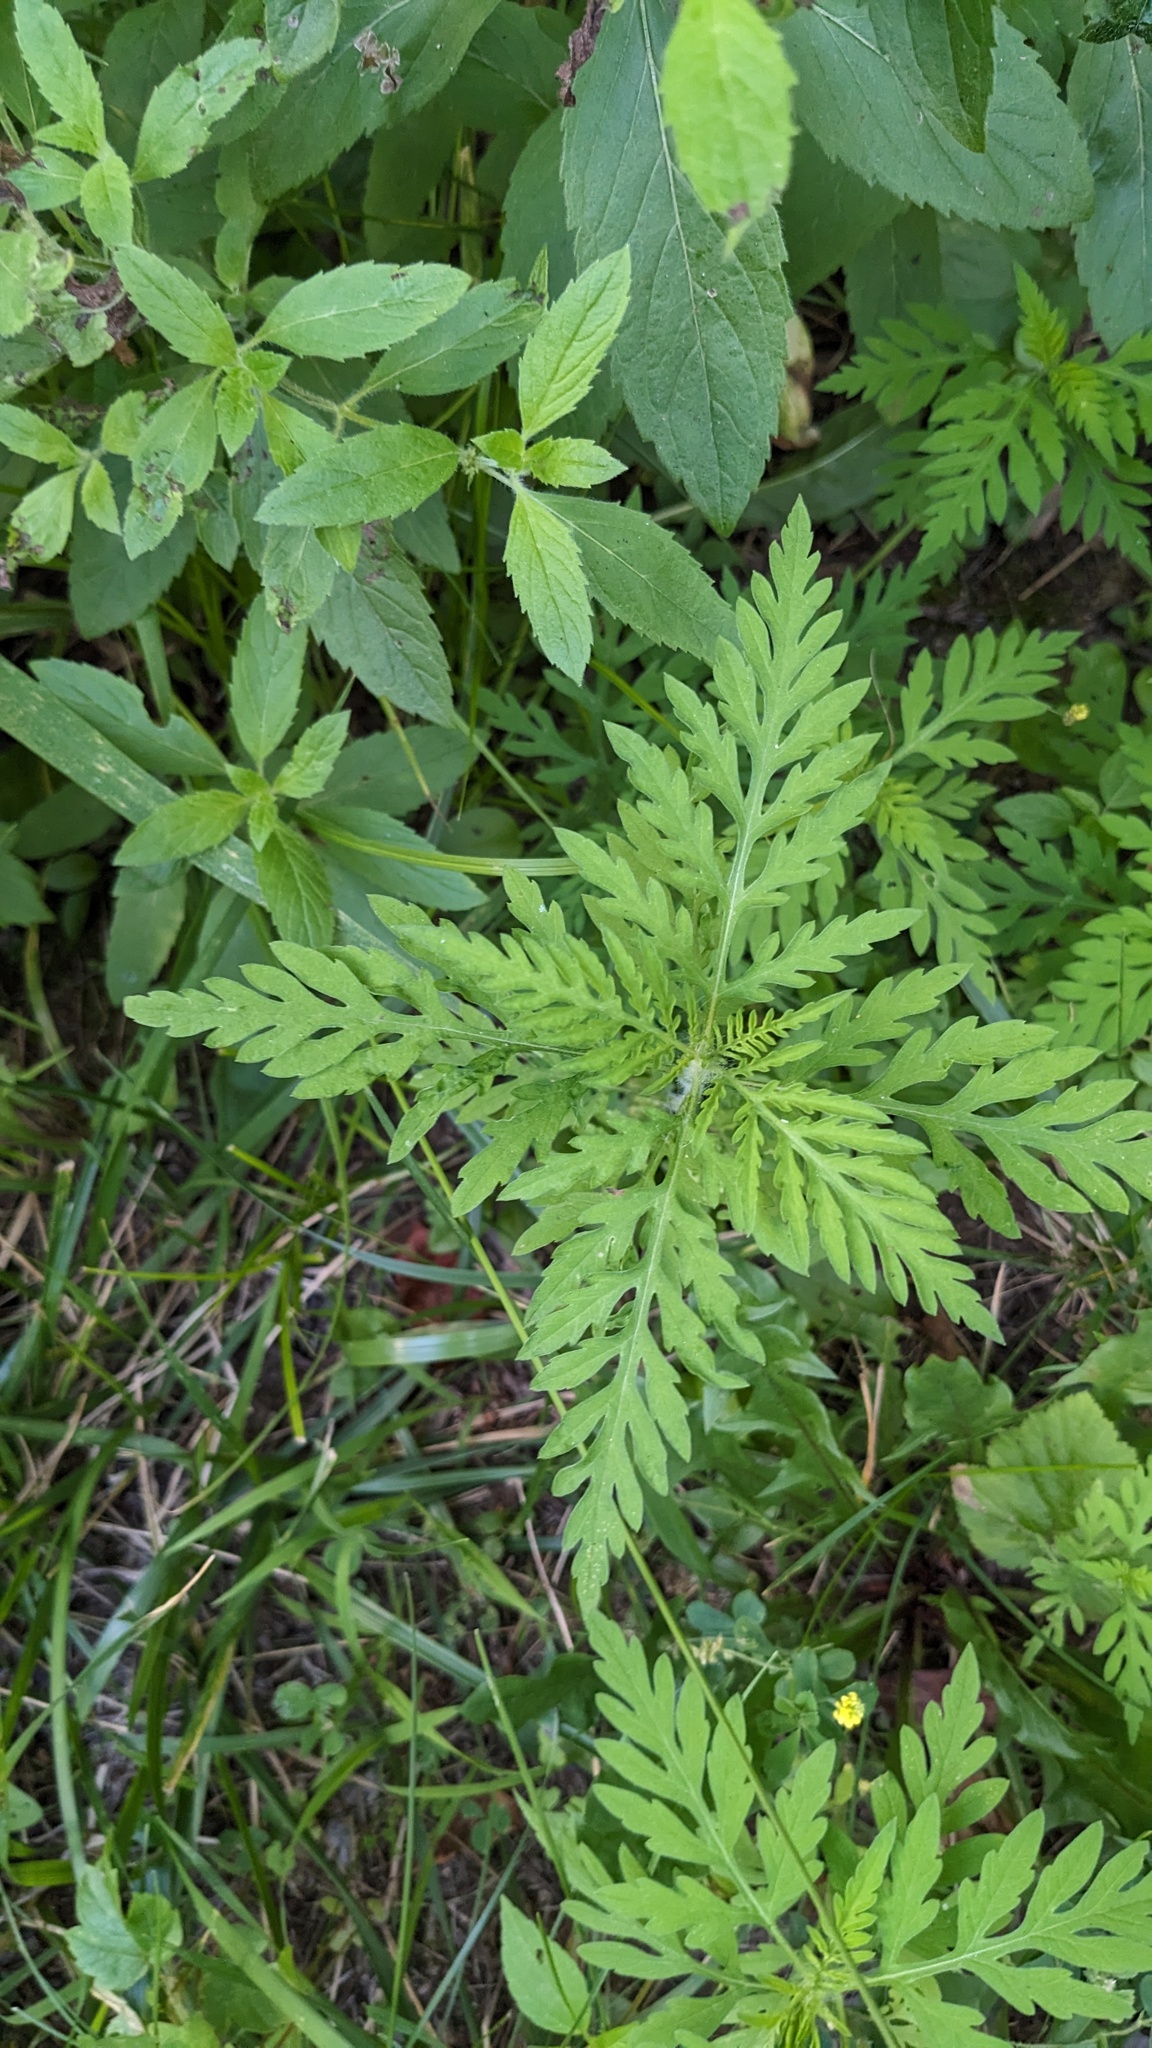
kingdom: Plantae
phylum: Tracheophyta
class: Magnoliopsida
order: Asterales
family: Asteraceae
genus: Ambrosia
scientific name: Ambrosia artemisiifolia
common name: Annual ragweed
